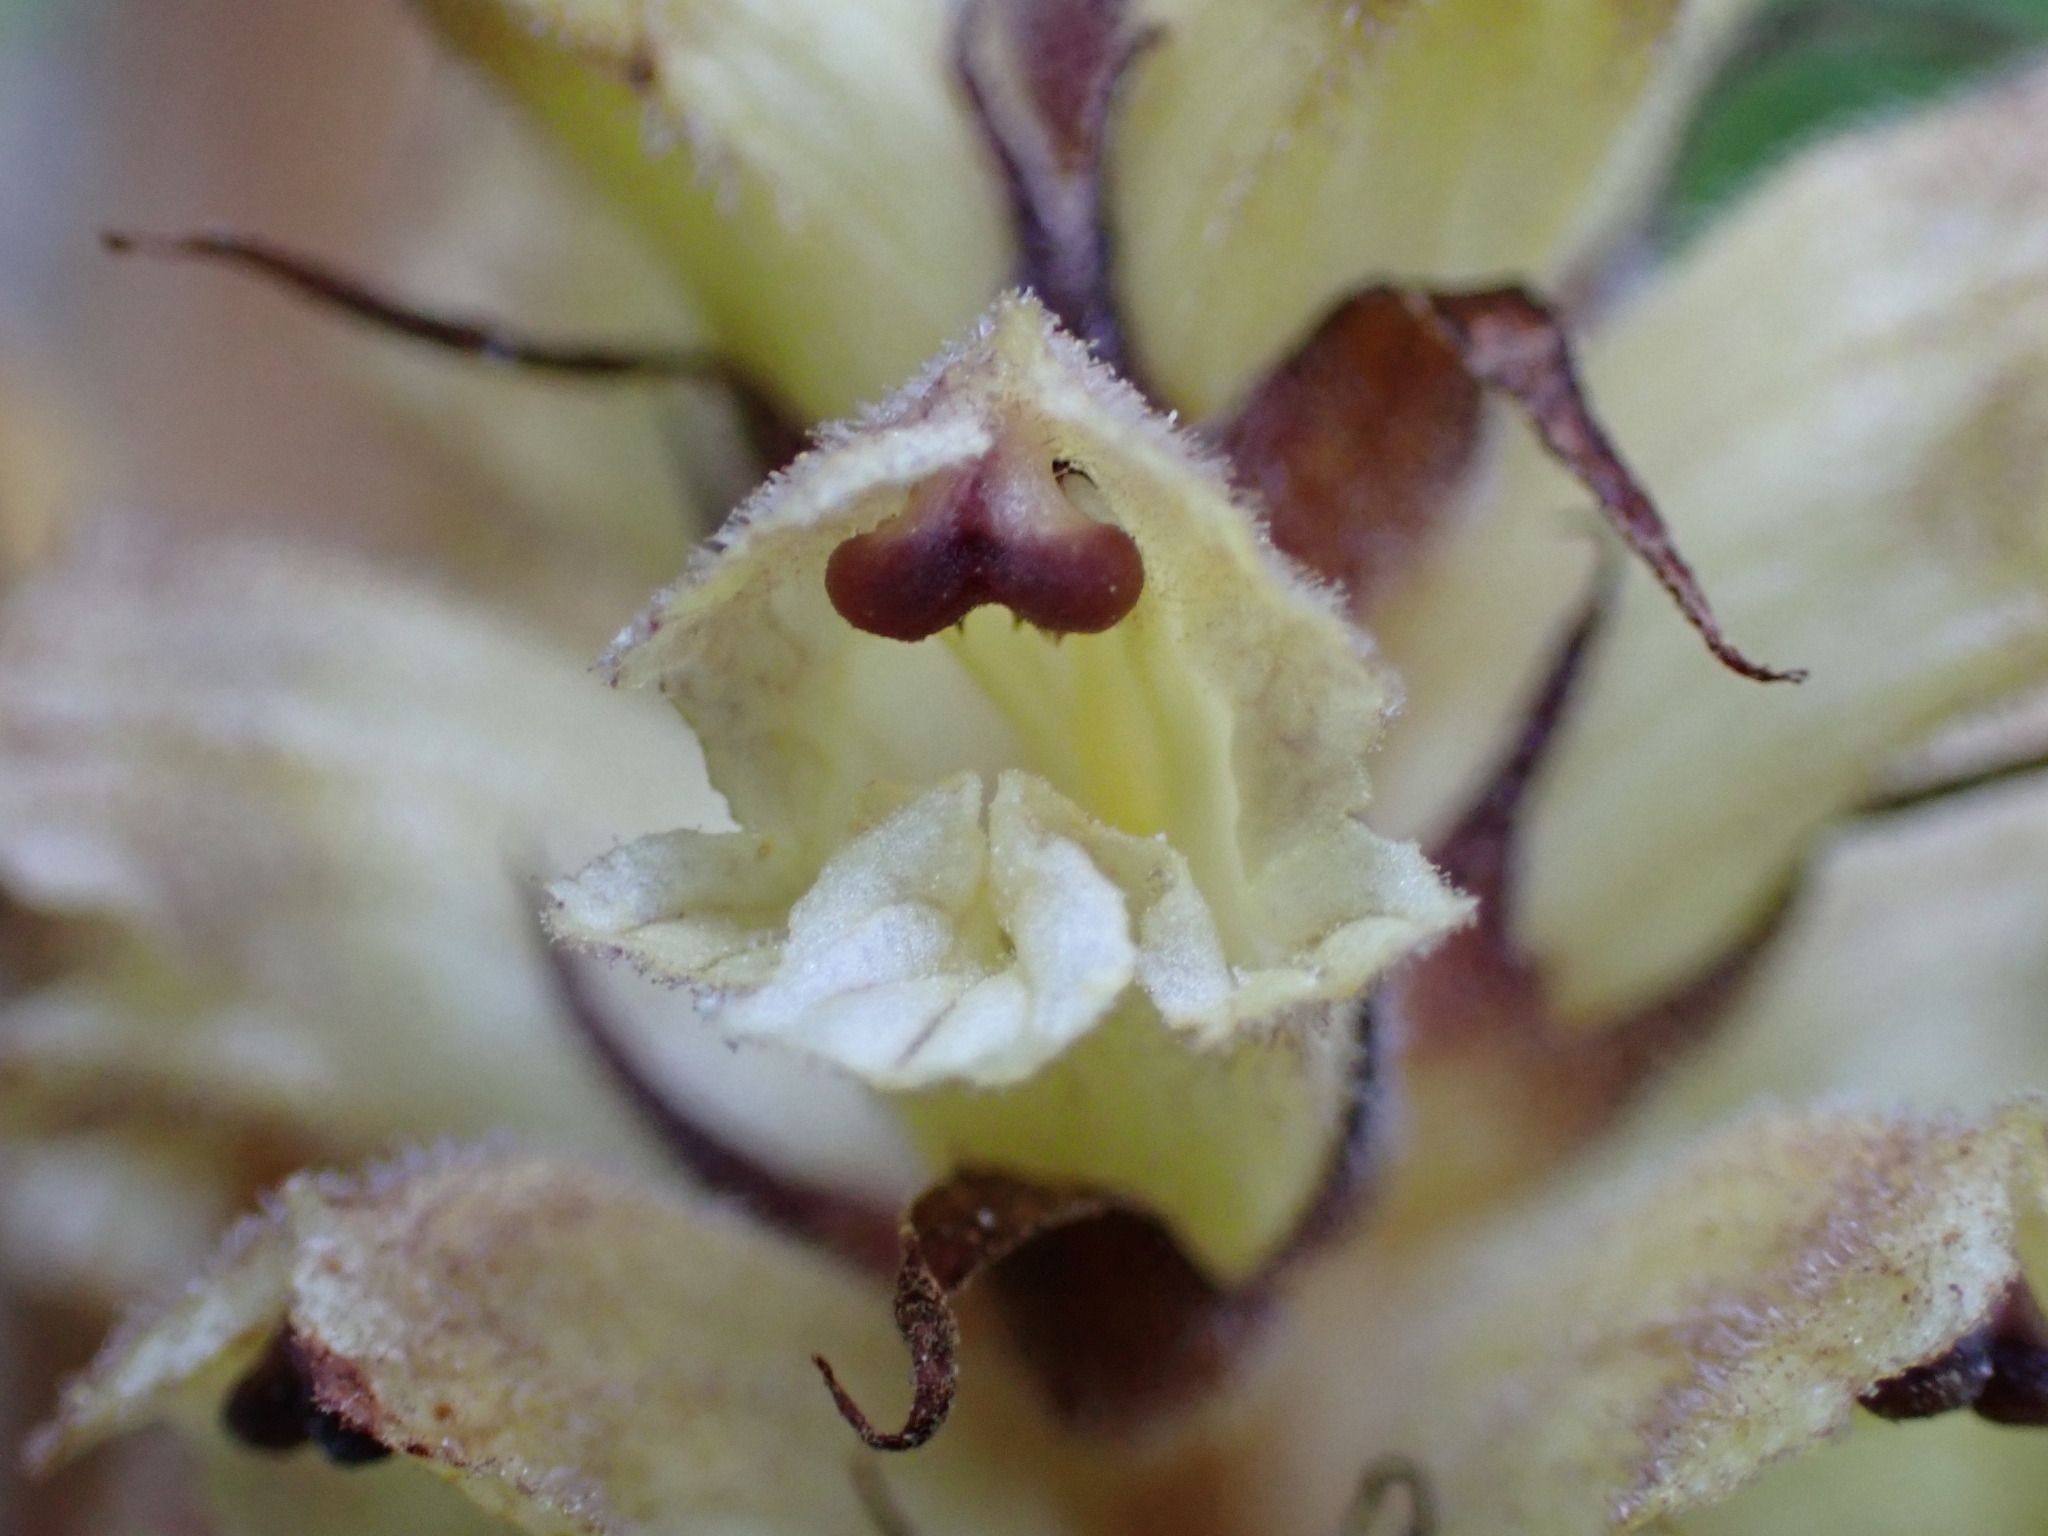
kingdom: Plantae
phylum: Tracheophyta
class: Magnoliopsida
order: Lamiales
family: Orobanchaceae
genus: Orobanche
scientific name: Orobanche reticulata
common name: Thistle broomrape
